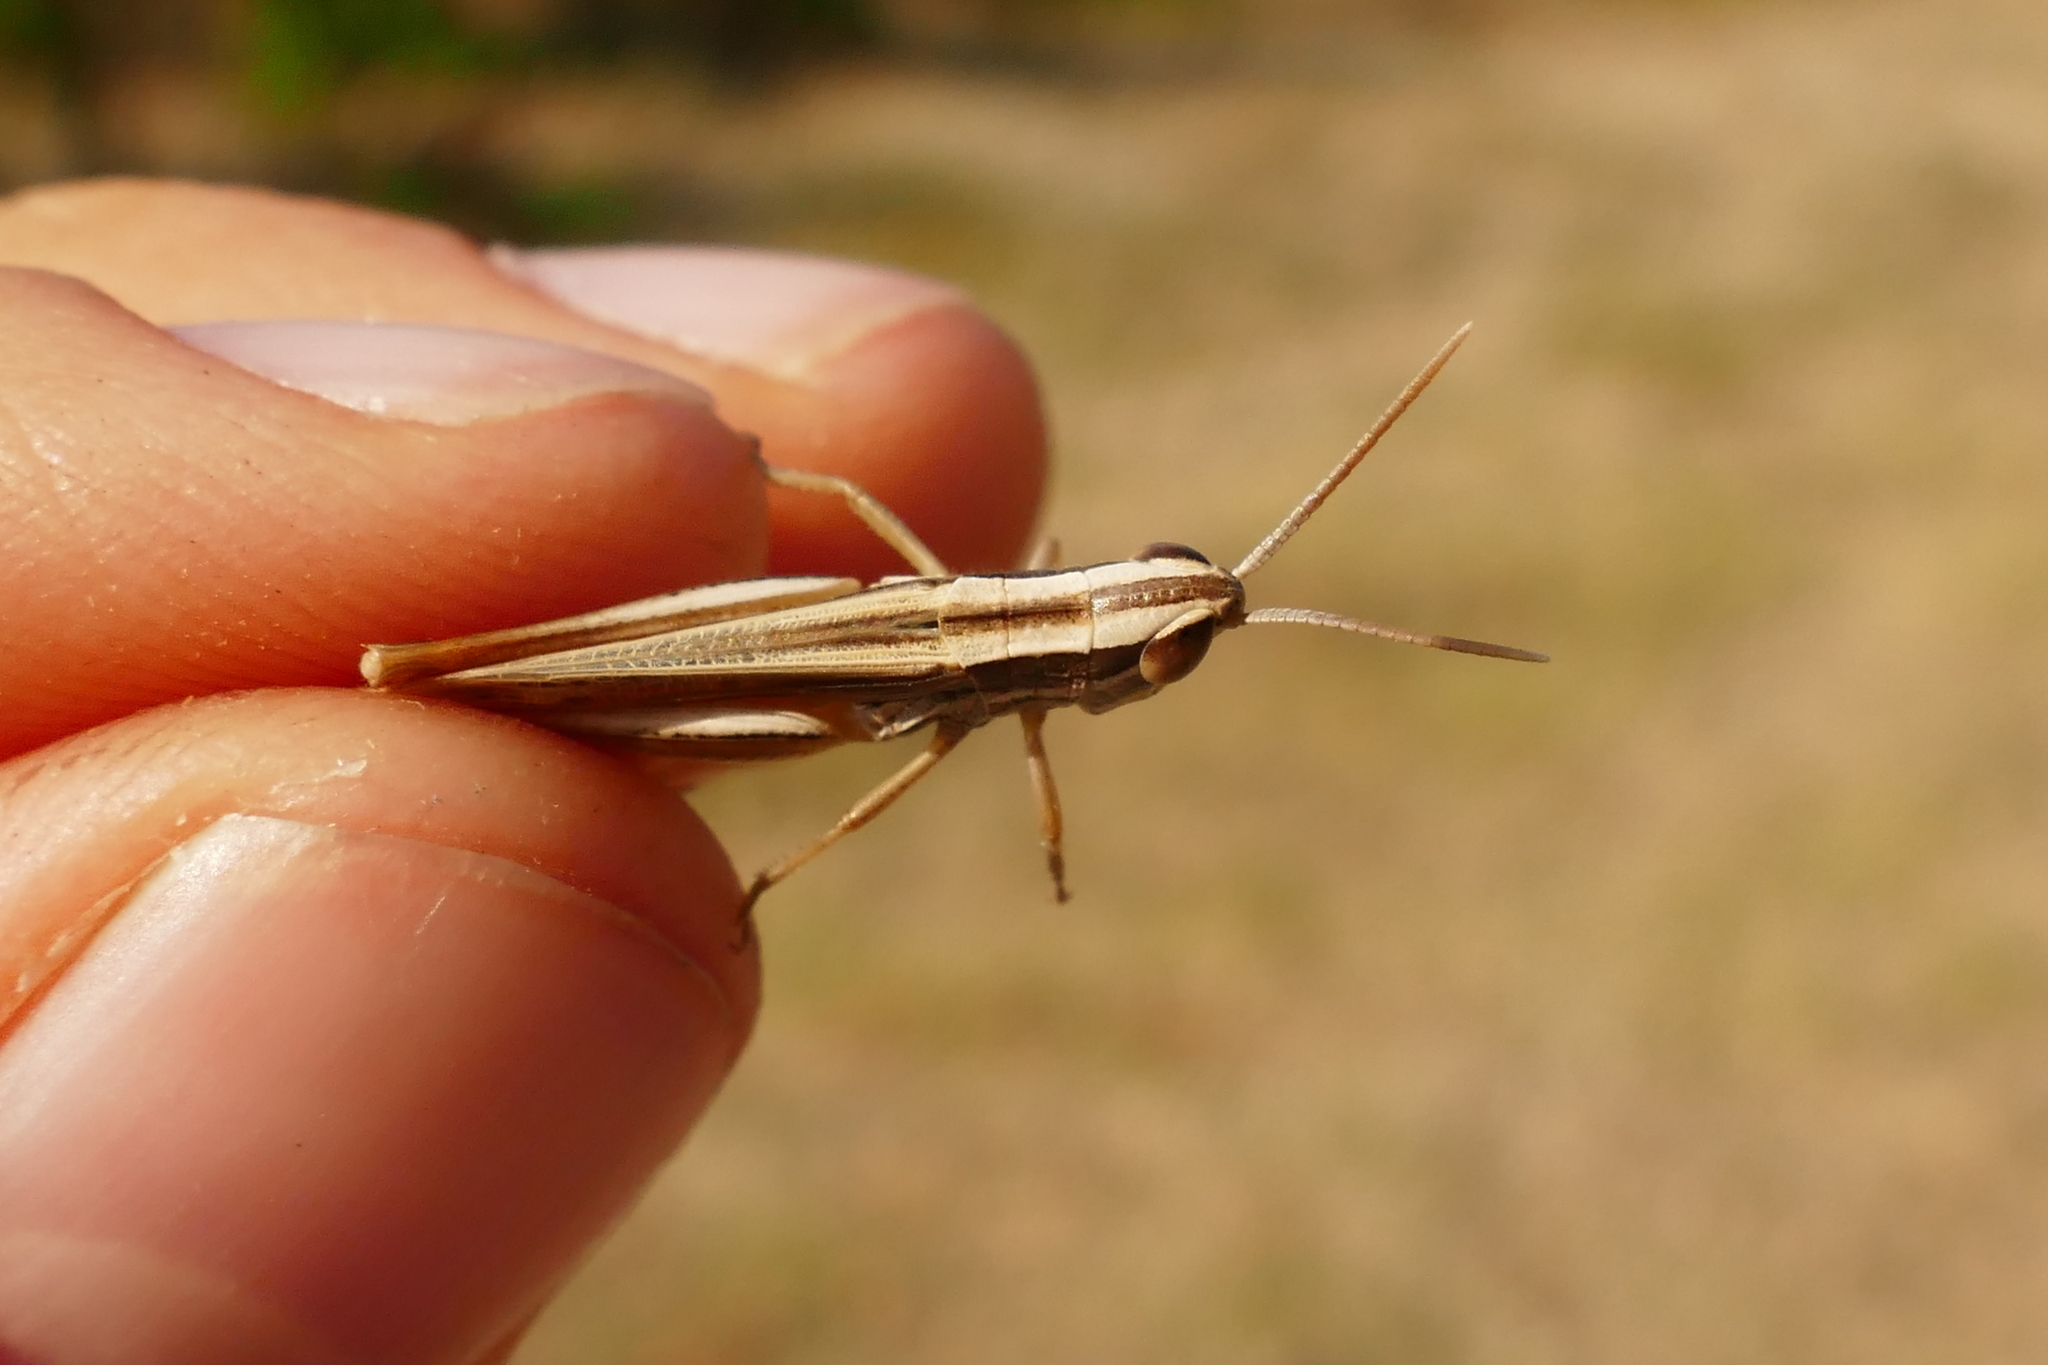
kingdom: Animalia
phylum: Arthropoda
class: Insecta
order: Orthoptera
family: Acrididae
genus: Euchorthippus
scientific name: Euchorthippus chopardi
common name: Iberian straw grasshopper
